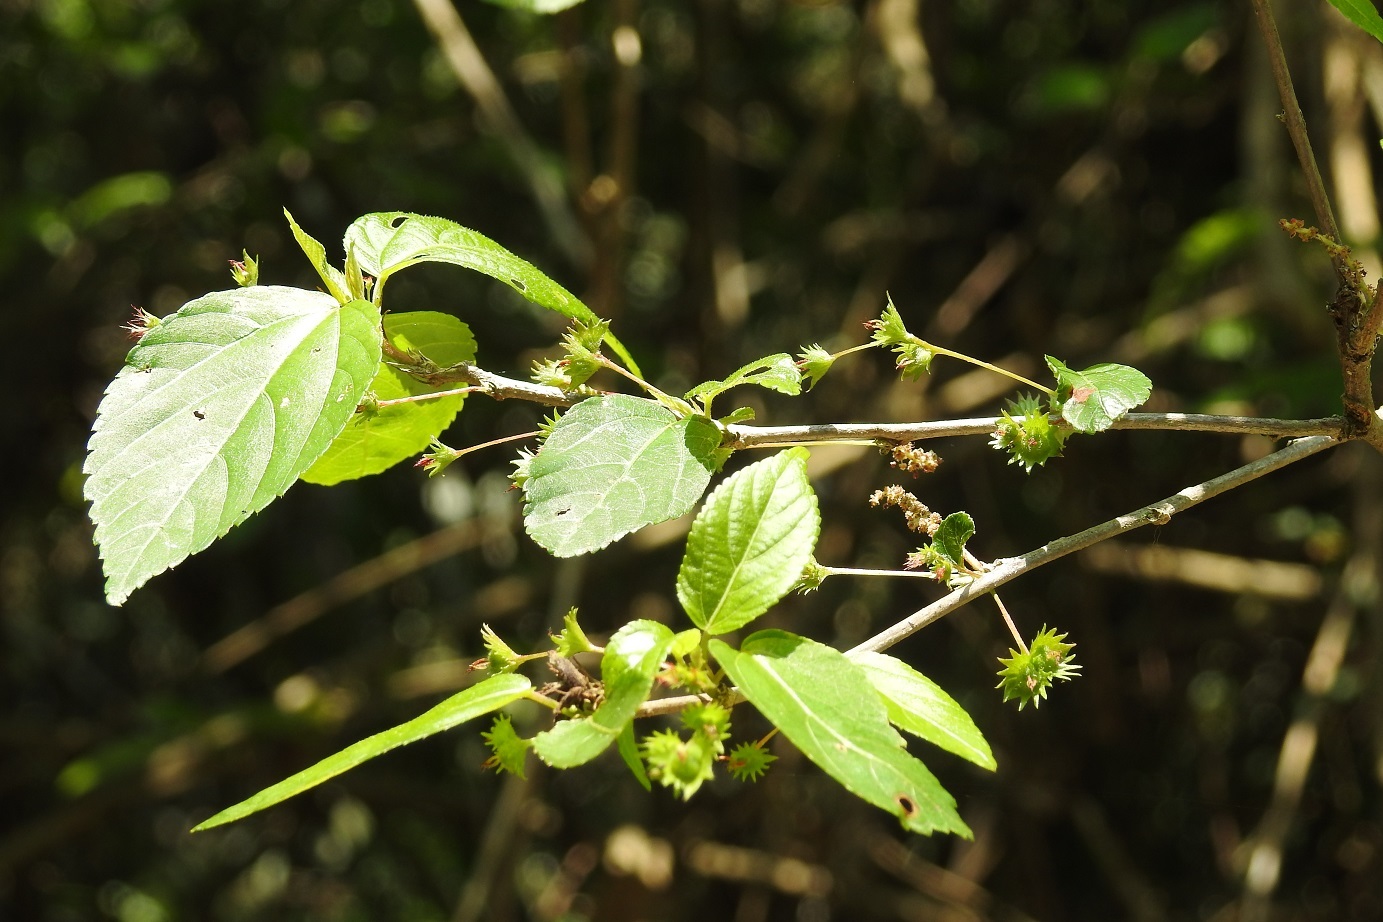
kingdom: Plantae
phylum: Tracheophyta
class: Magnoliopsida
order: Malpighiales
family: Euphorbiaceae
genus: Acalypha
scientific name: Acalypha leptopoda
